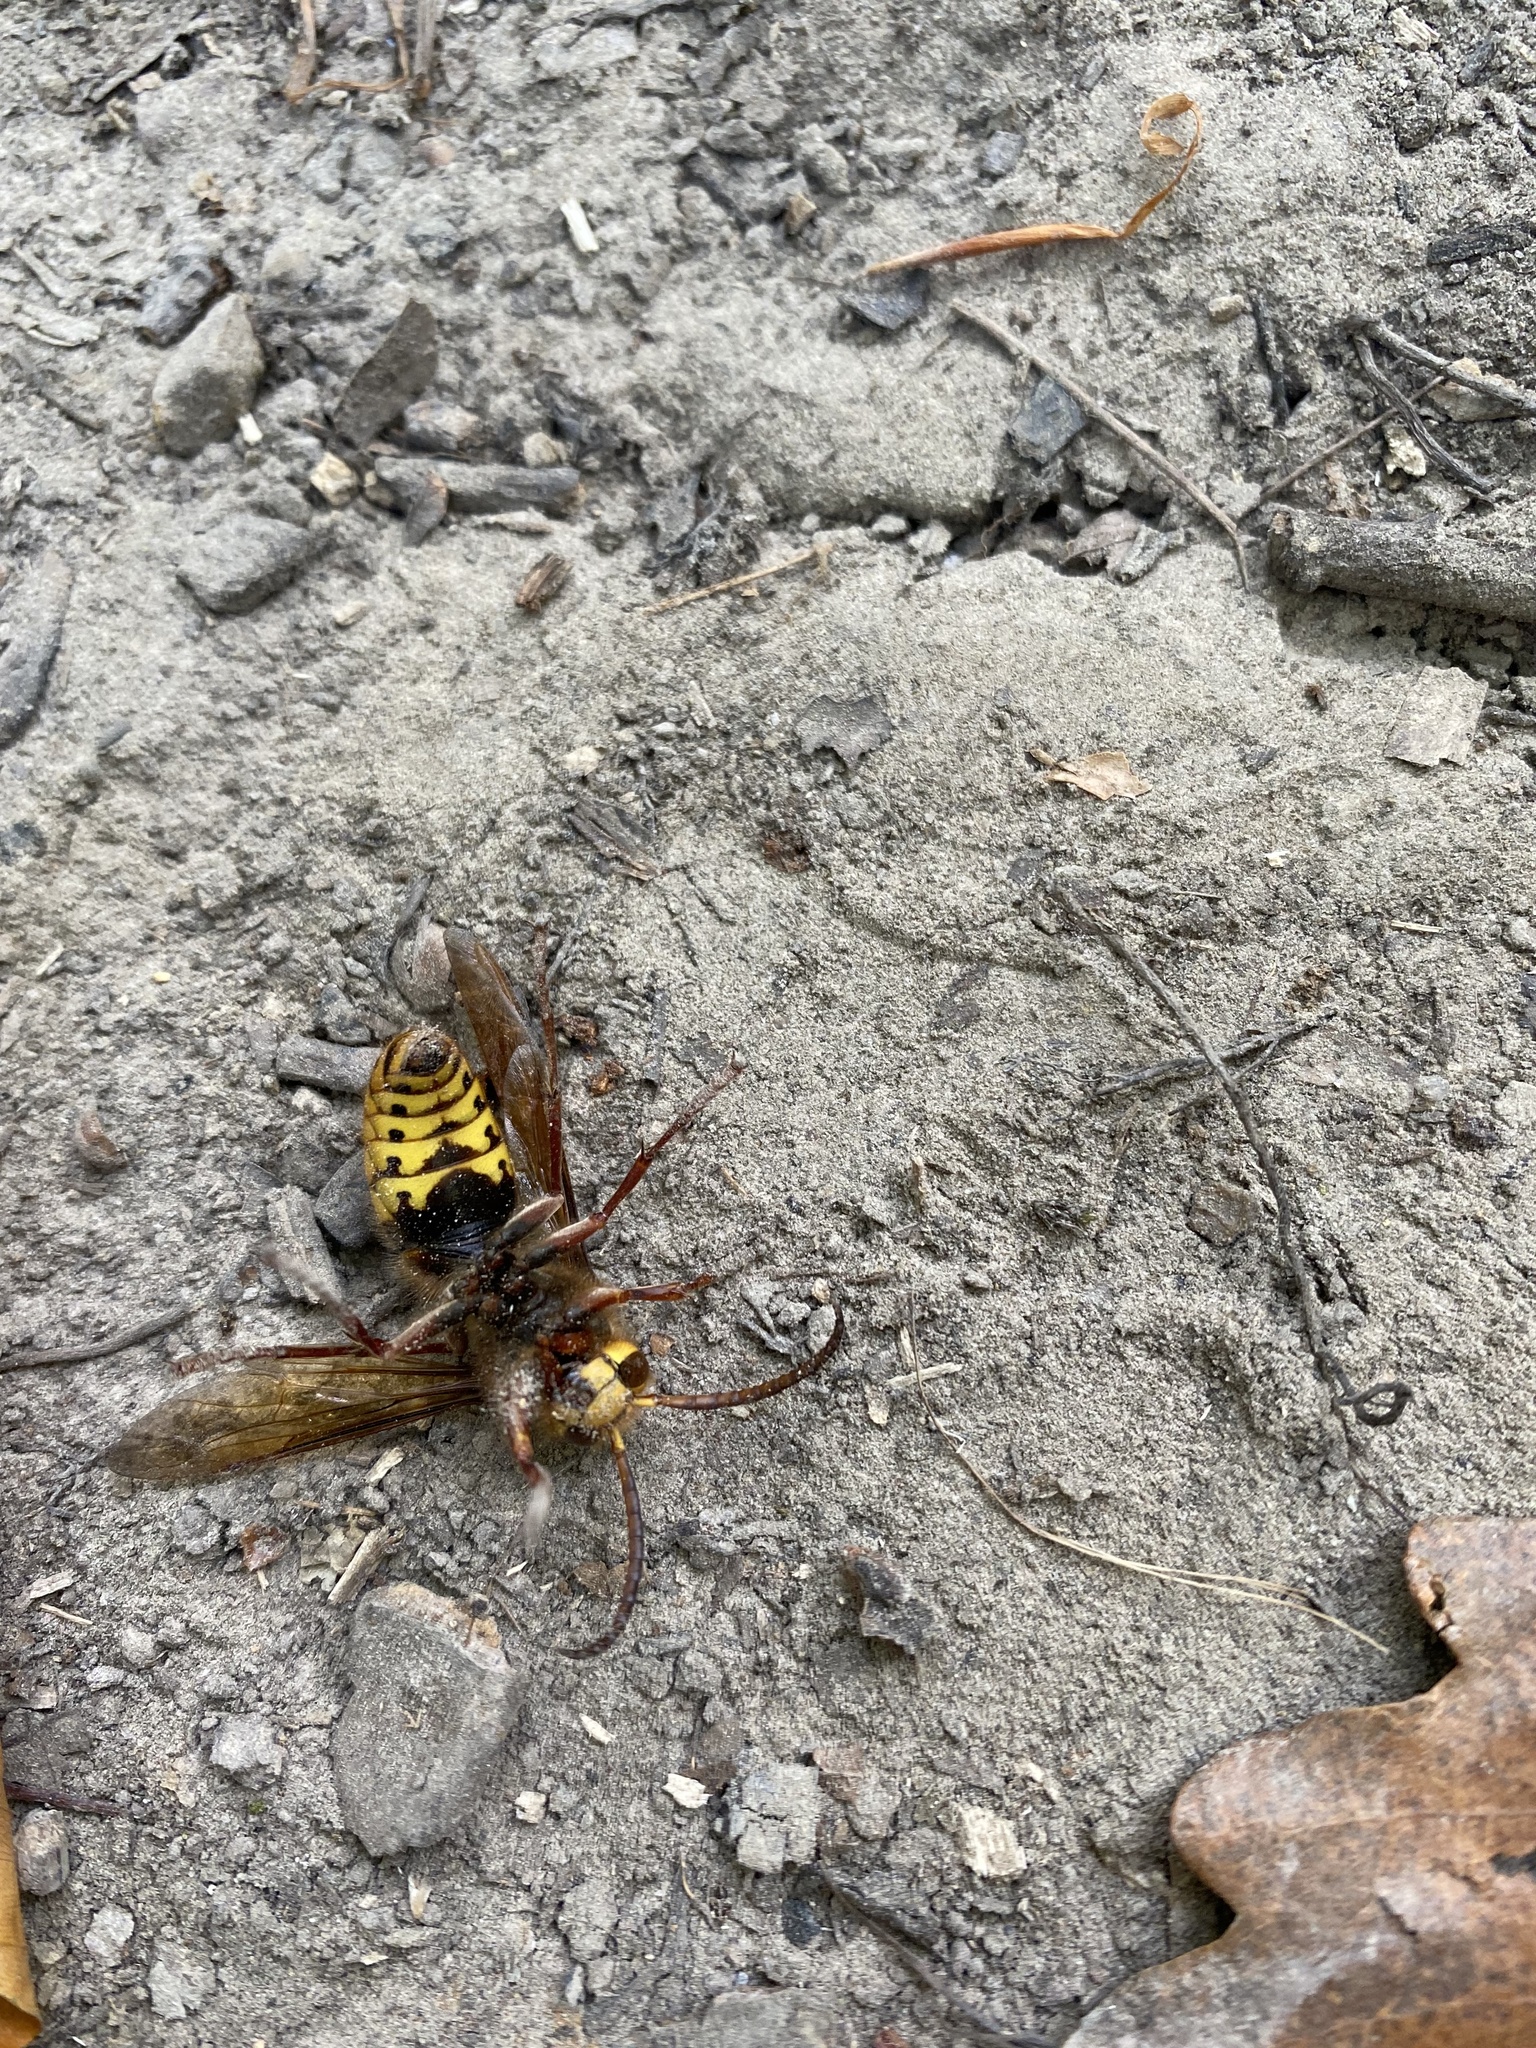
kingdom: Animalia
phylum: Arthropoda
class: Insecta
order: Hymenoptera
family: Vespidae
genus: Vespa
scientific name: Vespa crabro
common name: Hornet
